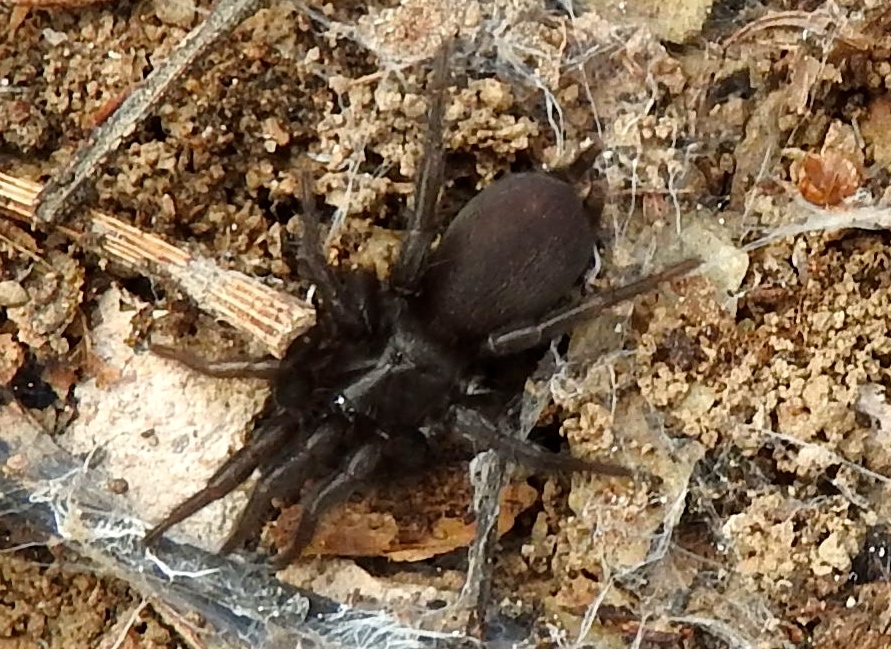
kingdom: Animalia
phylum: Arthropoda
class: Arachnida
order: Araneae
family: Euagridae
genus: Euagrus
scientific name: Euagrus gertschi
